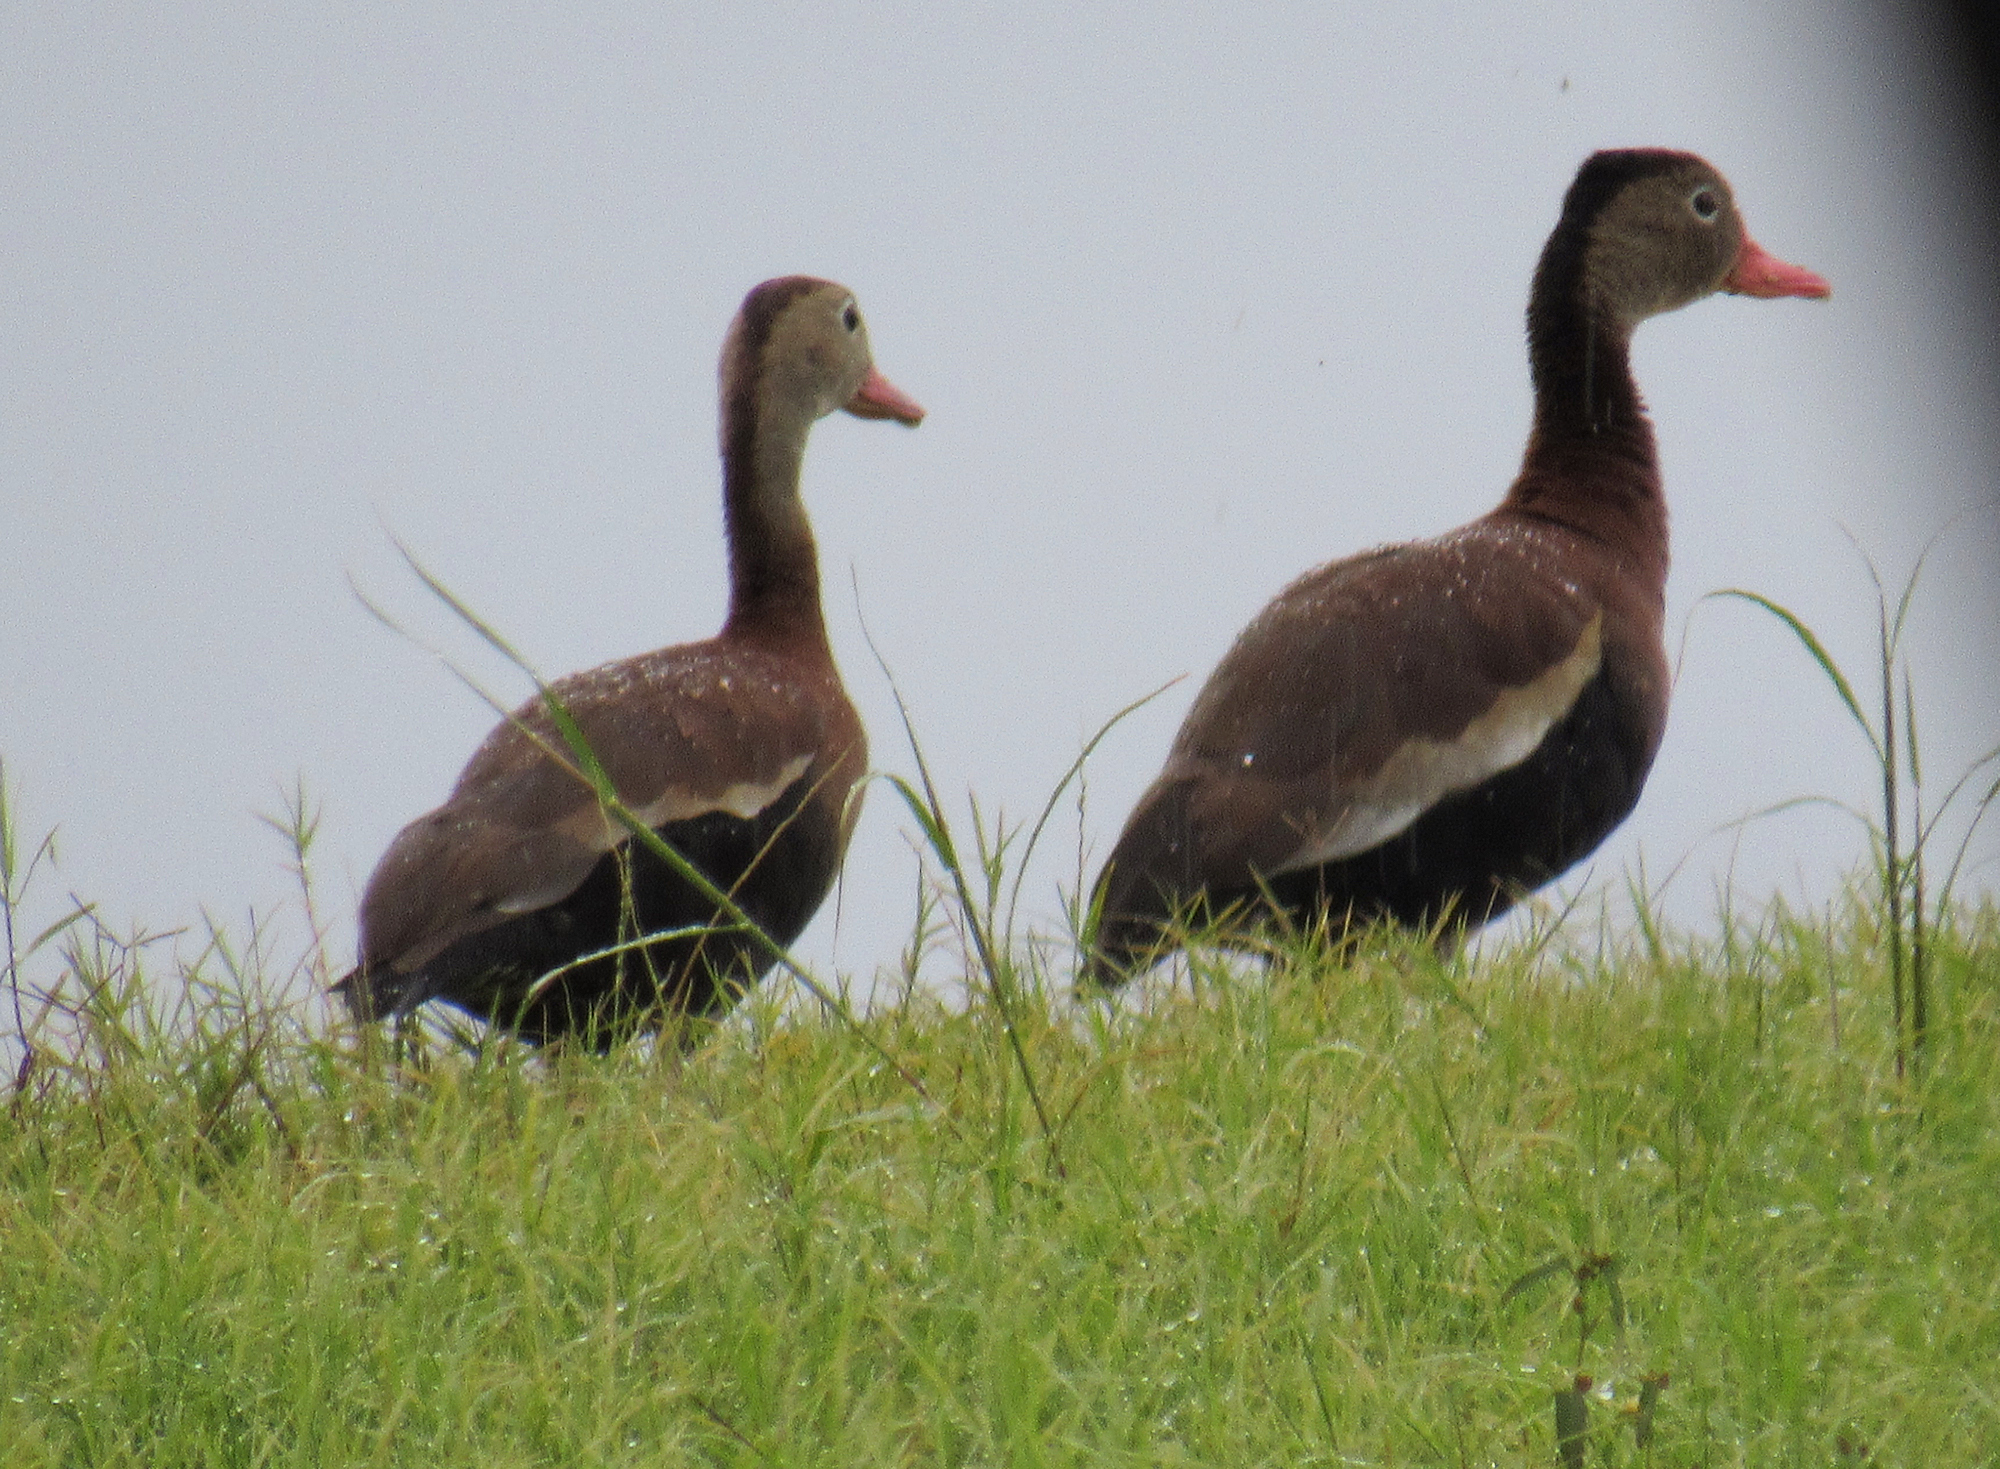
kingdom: Animalia
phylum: Chordata
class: Aves
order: Anseriformes
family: Anatidae
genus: Dendrocygna
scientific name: Dendrocygna autumnalis
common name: Black-bellied whistling duck
